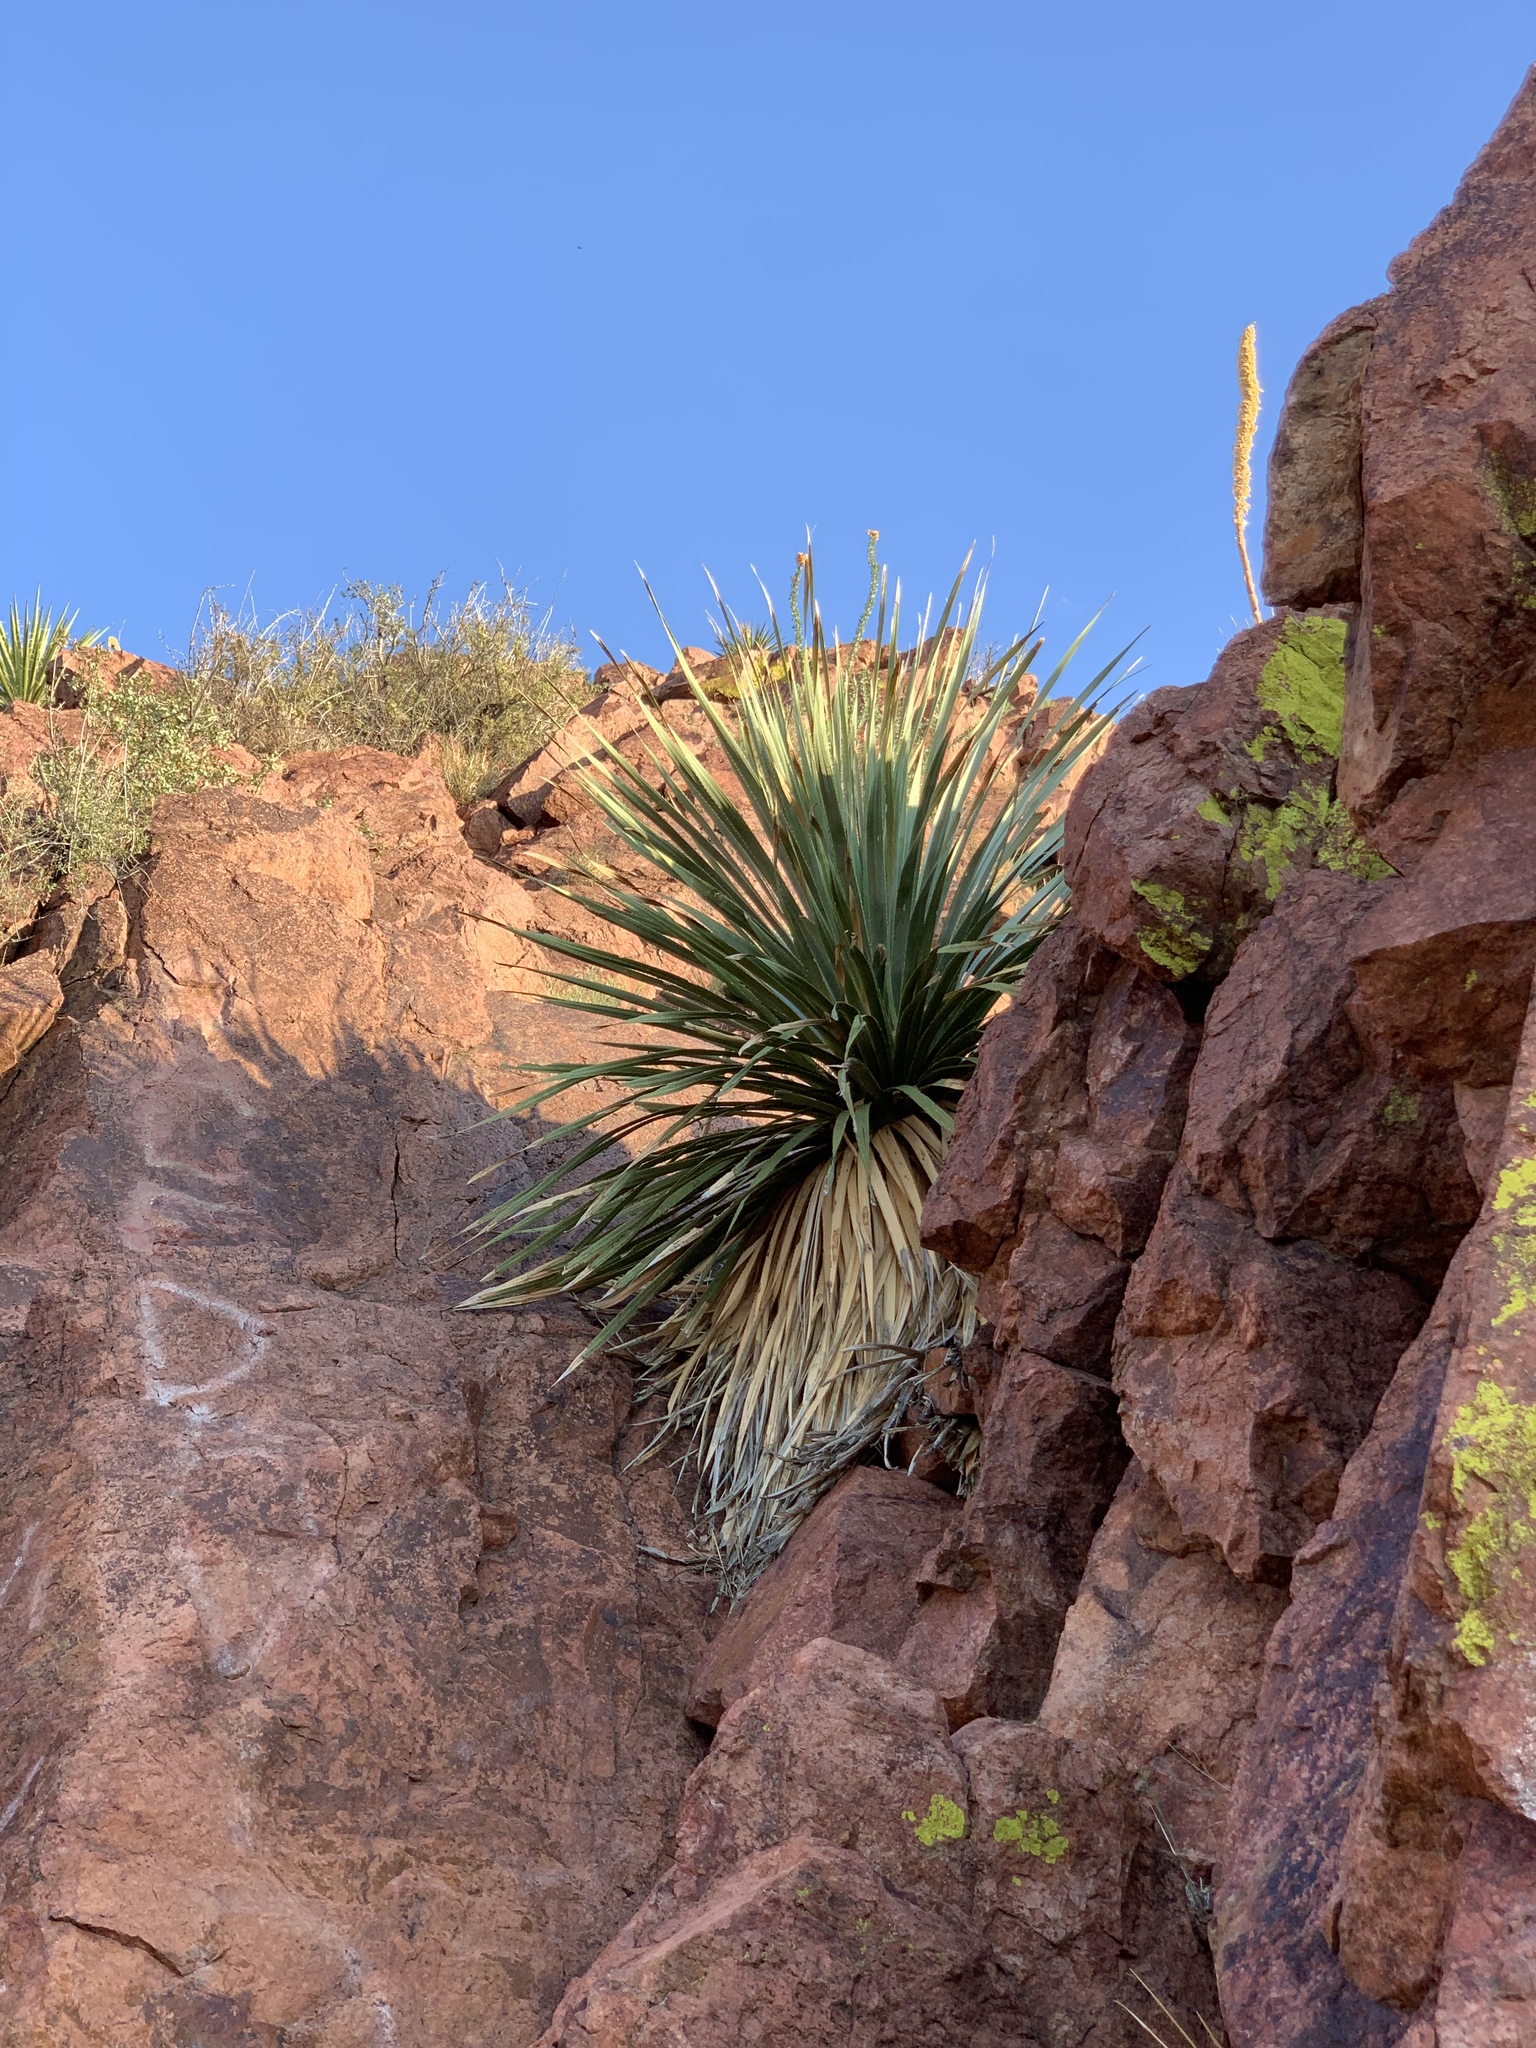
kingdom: Plantae
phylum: Tracheophyta
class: Liliopsida
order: Asparagales
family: Asparagaceae
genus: Dasylirion
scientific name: Dasylirion wheeleri
